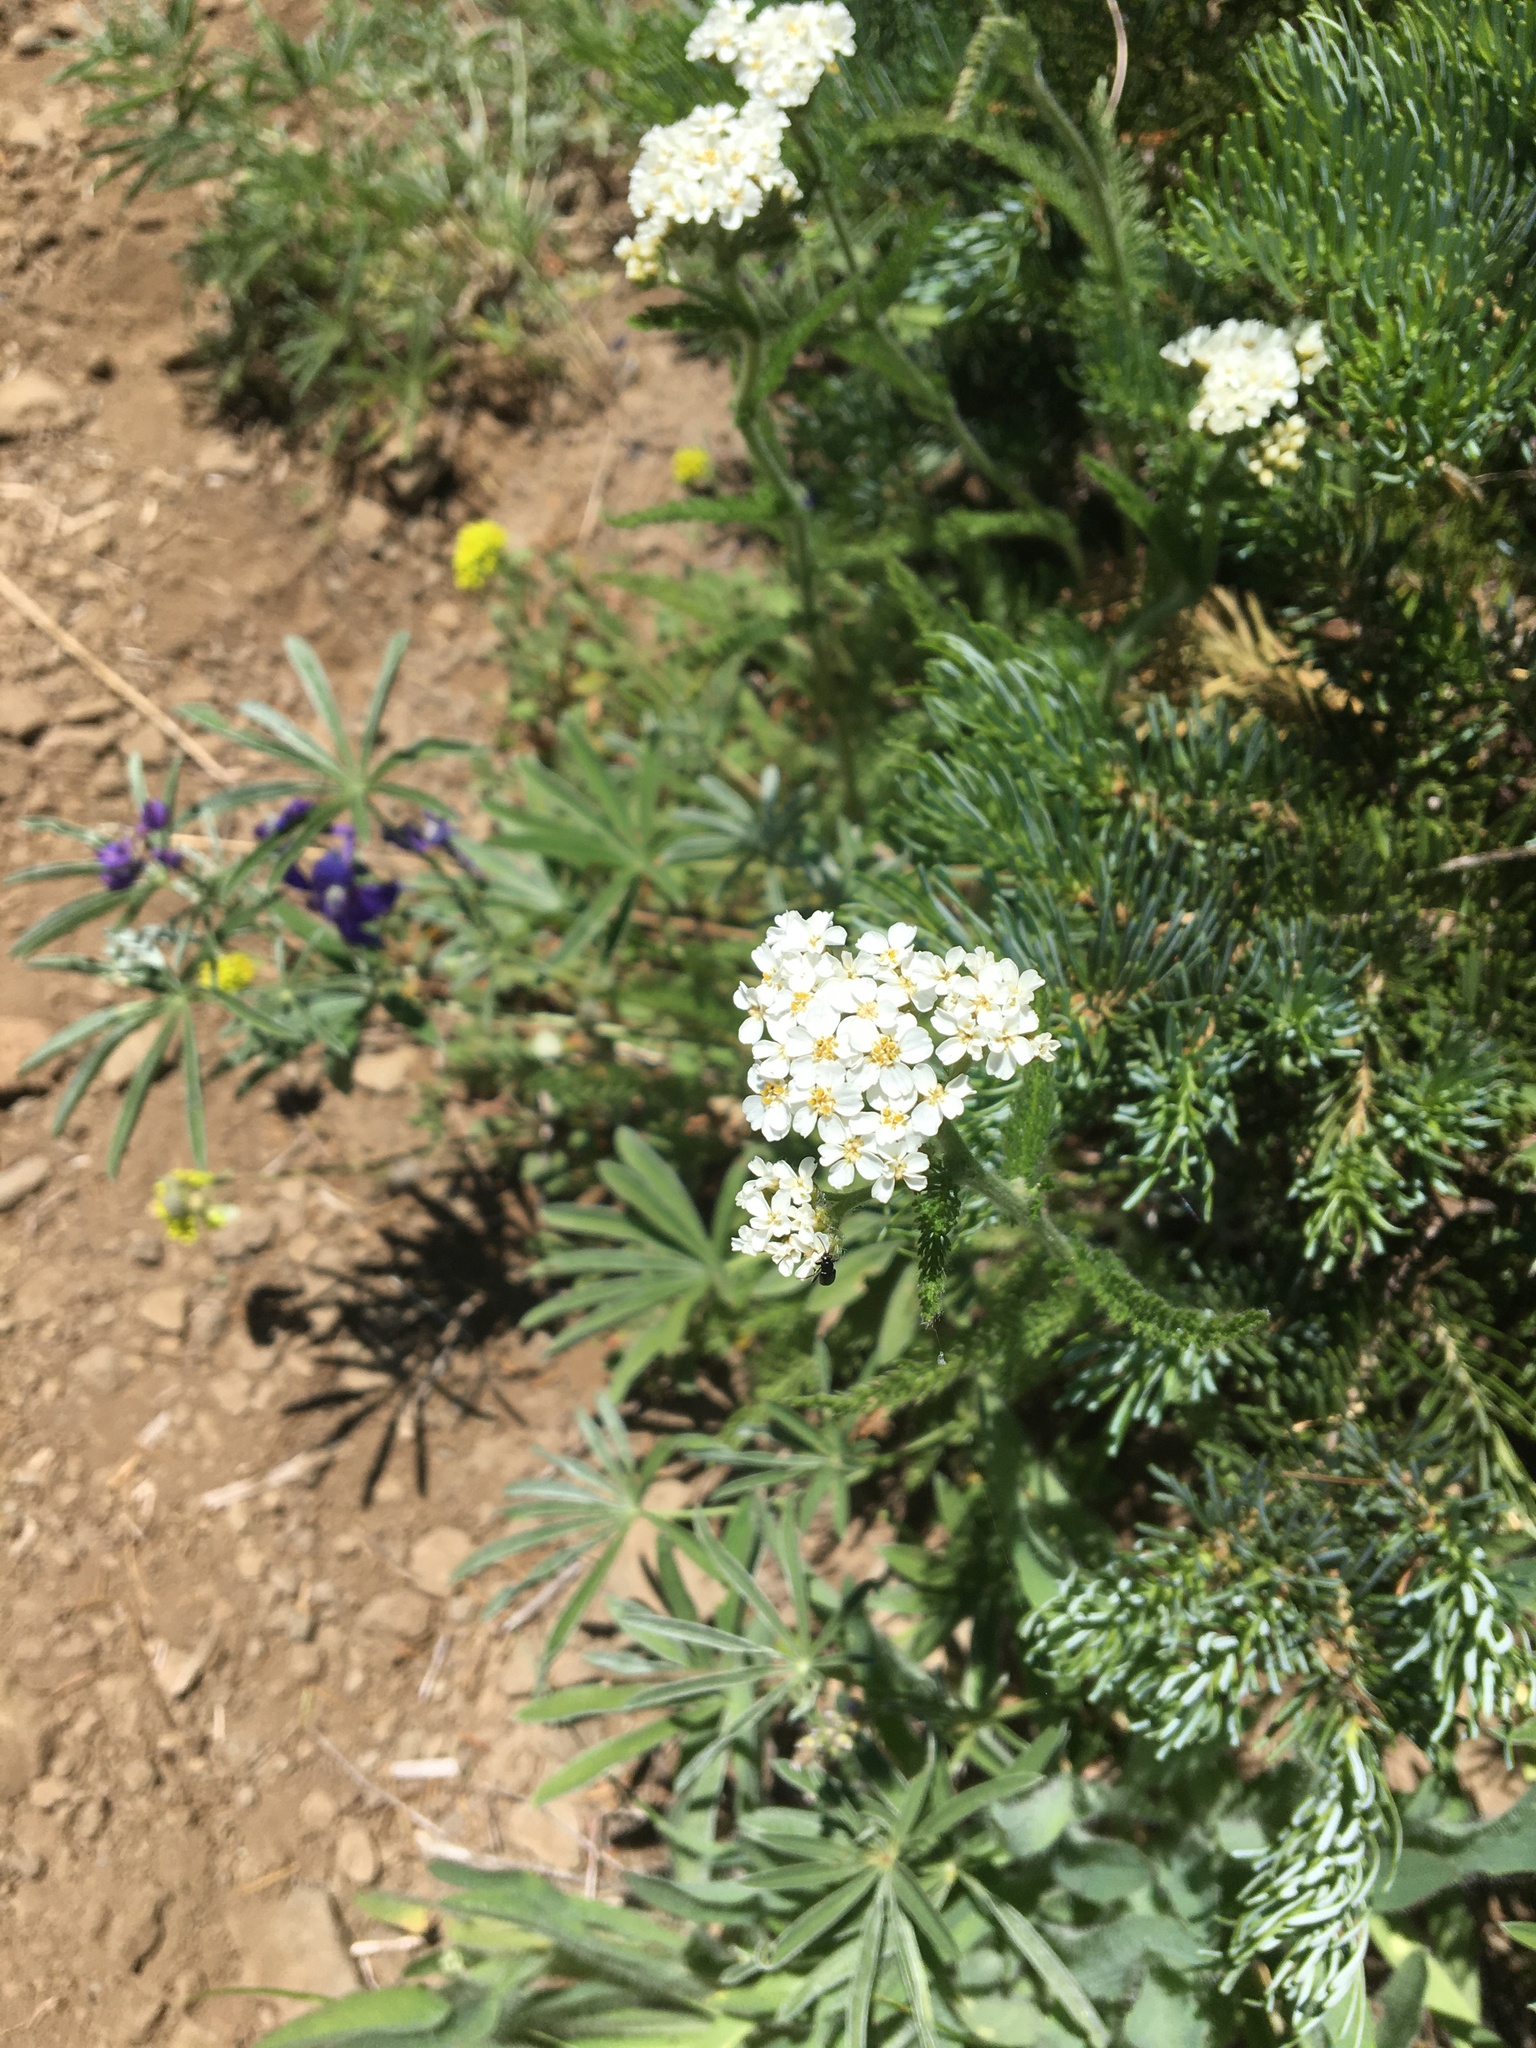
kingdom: Plantae
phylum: Tracheophyta
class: Magnoliopsida
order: Asterales
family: Asteraceae
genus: Achillea
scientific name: Achillea millefolium
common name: Yarrow
